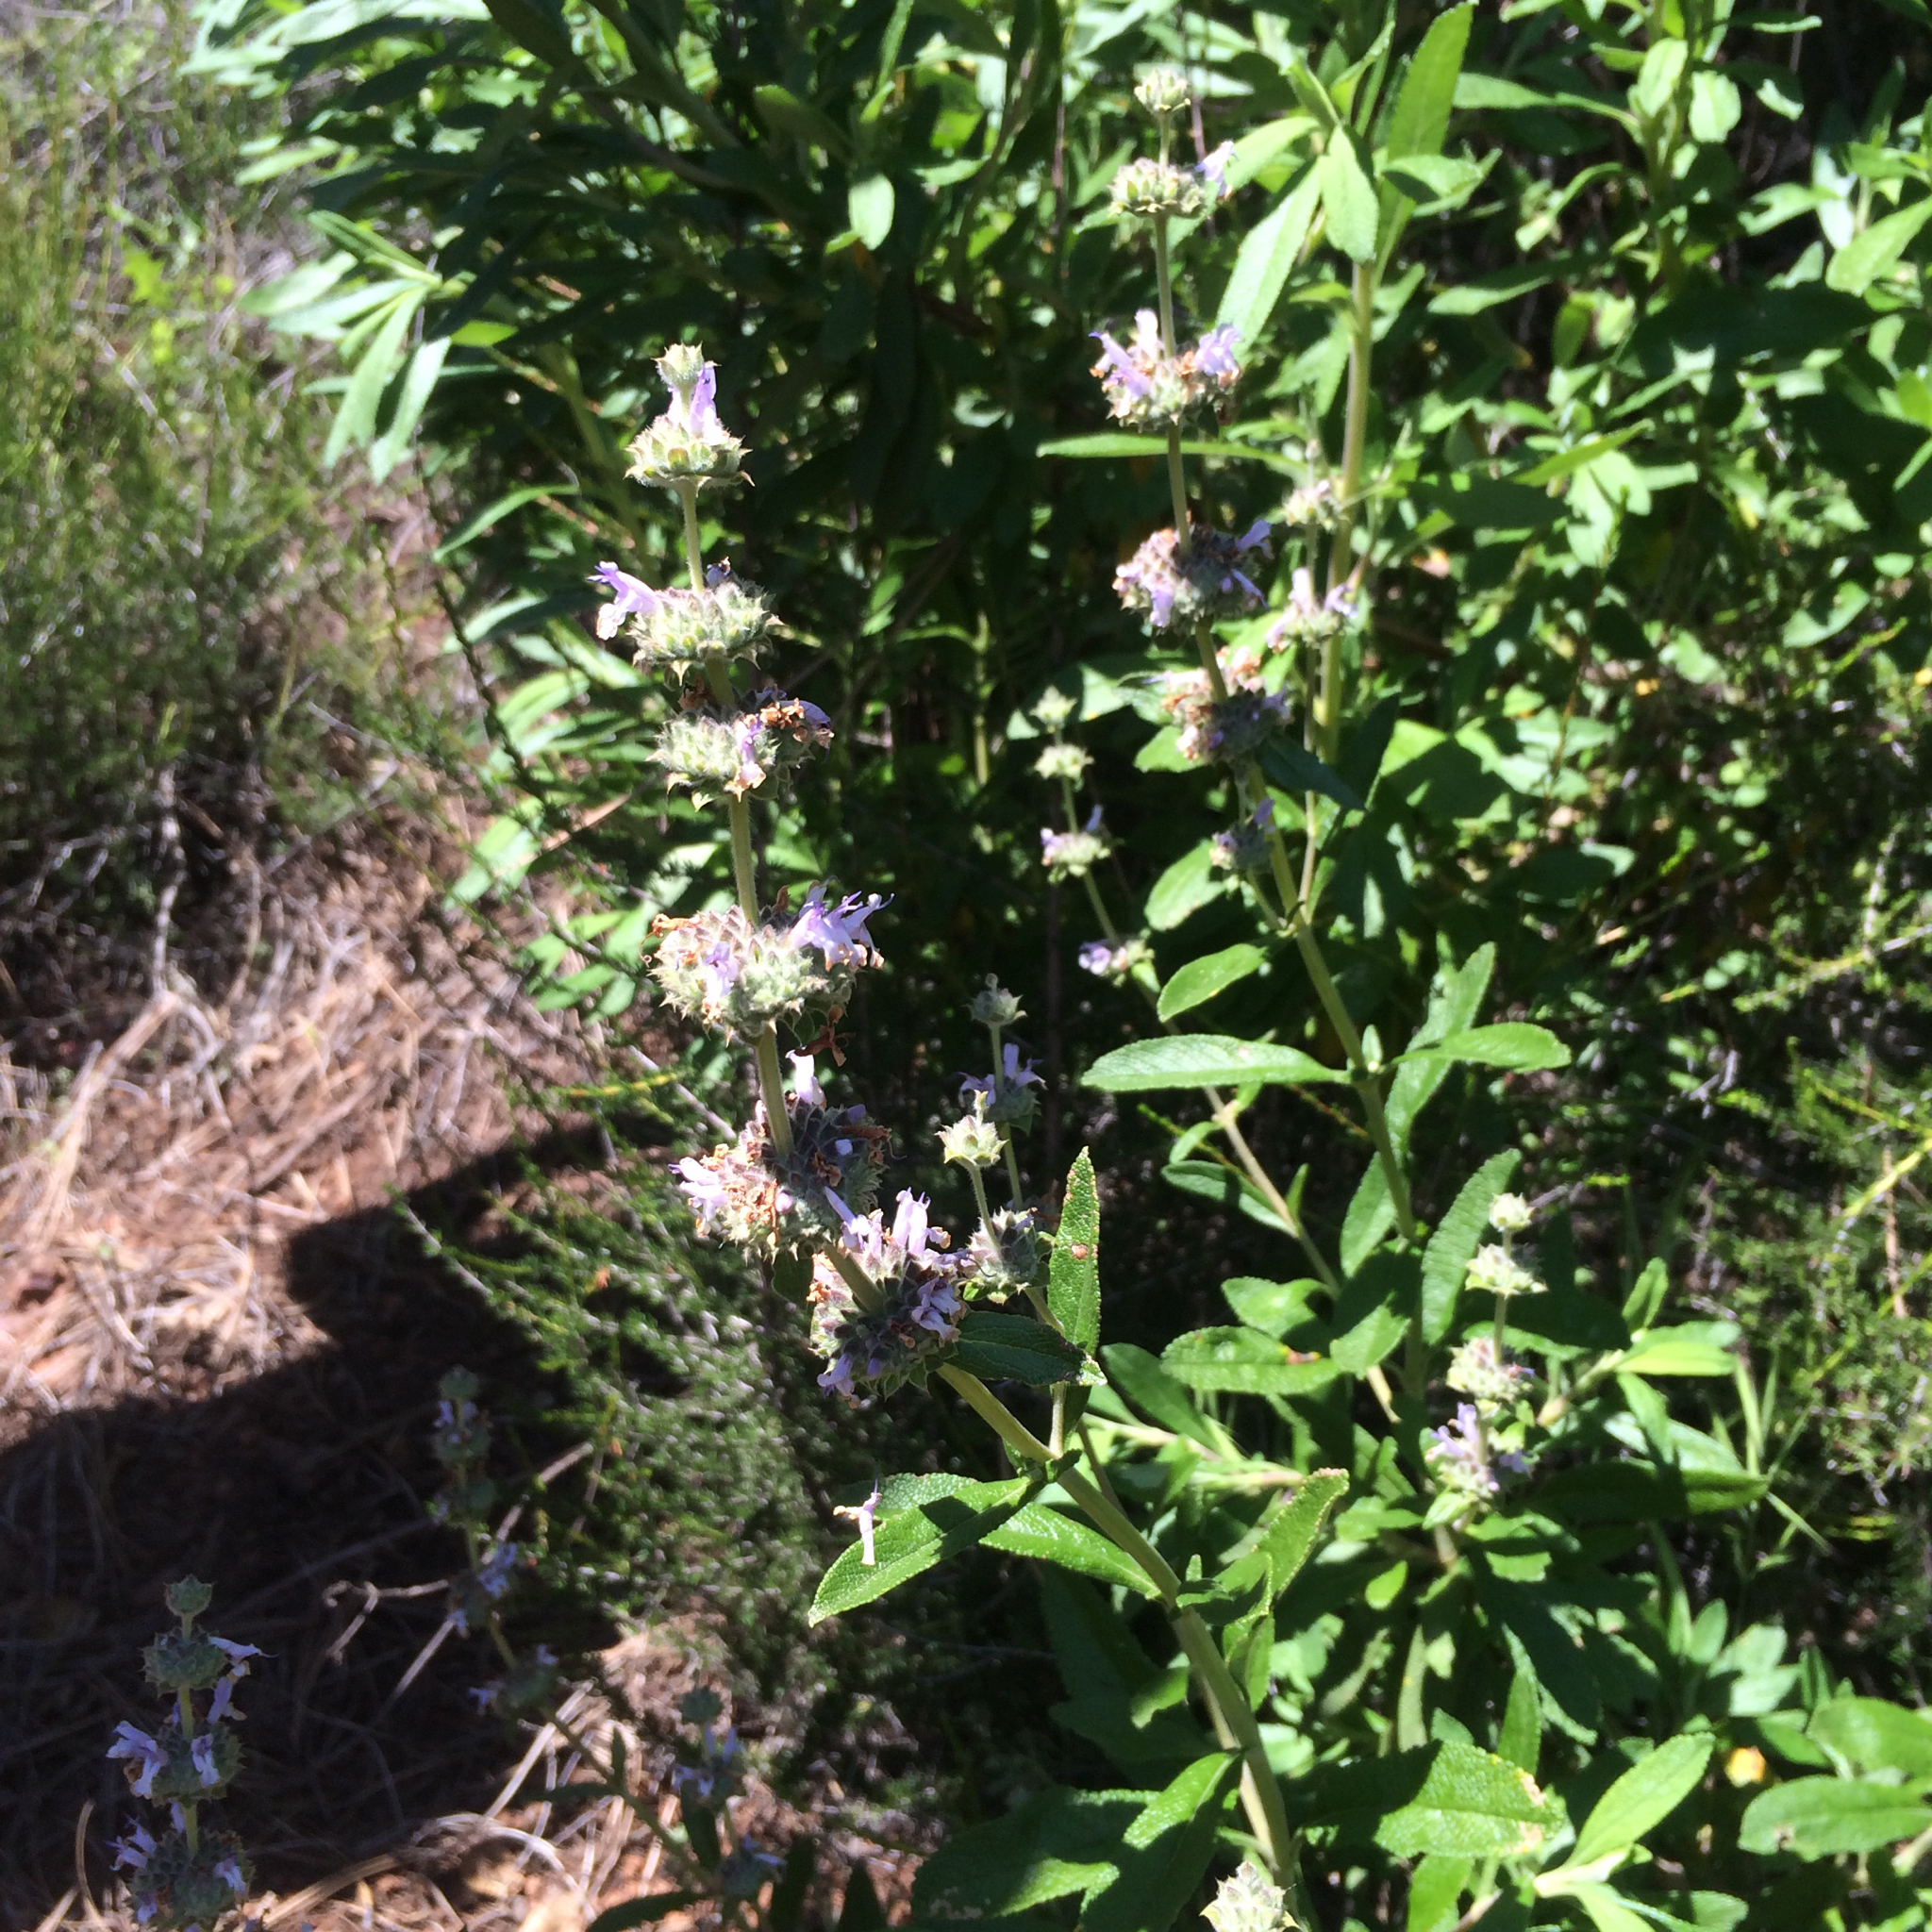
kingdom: Plantae
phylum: Tracheophyta
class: Magnoliopsida
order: Lamiales
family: Lamiaceae
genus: Salvia
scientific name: Salvia mellifera
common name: Black sage
